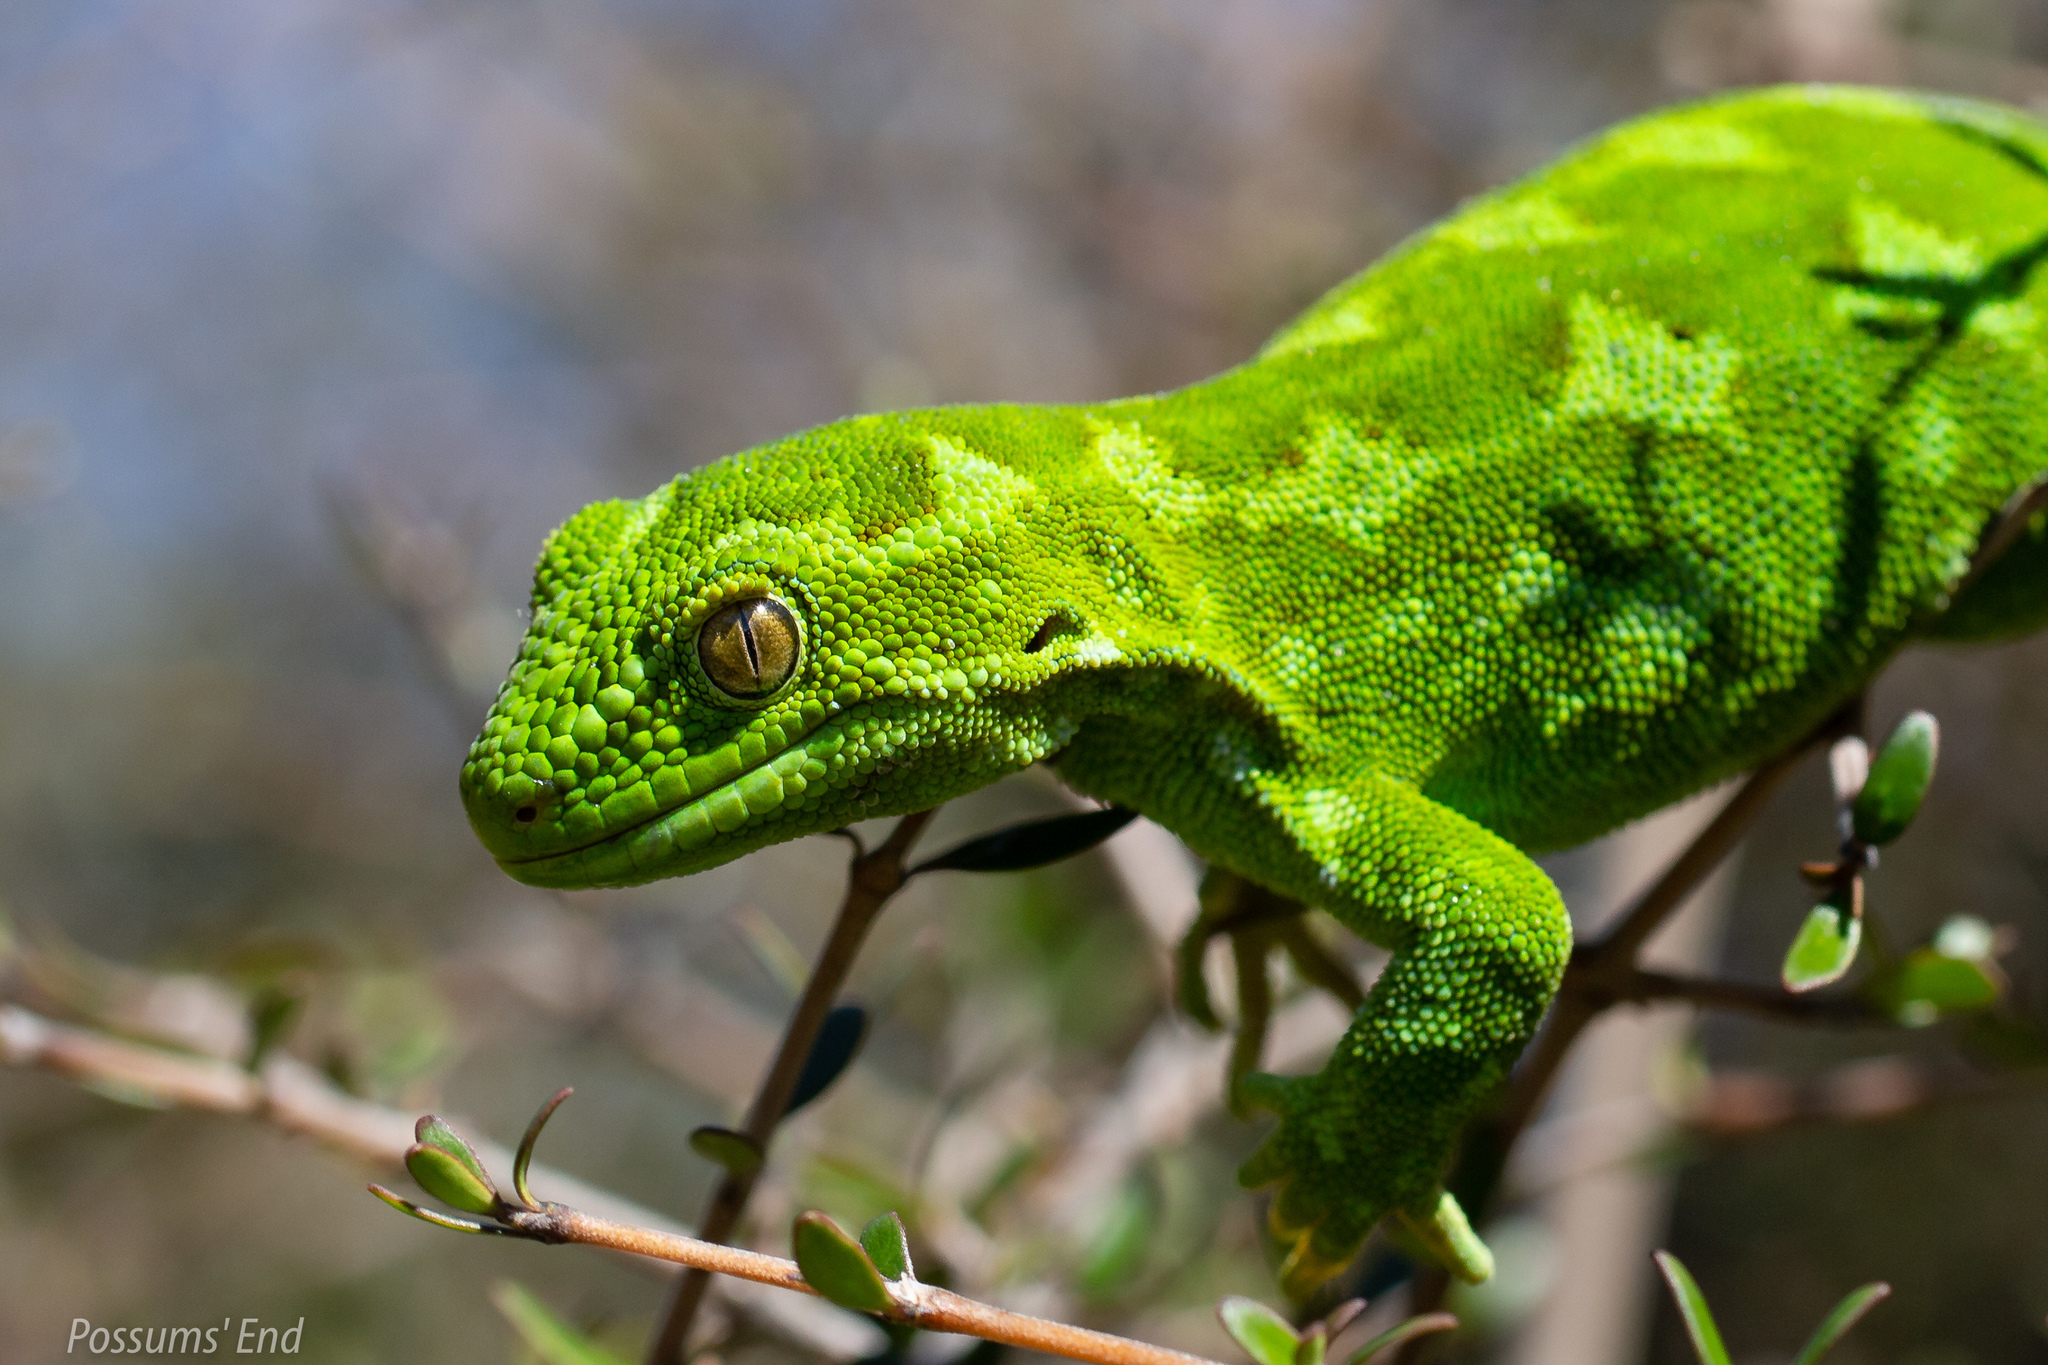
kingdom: Animalia
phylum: Chordata
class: Squamata
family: Diplodactylidae
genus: Naultinus
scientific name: Naultinus gemmeus
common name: Jewelled gecko
